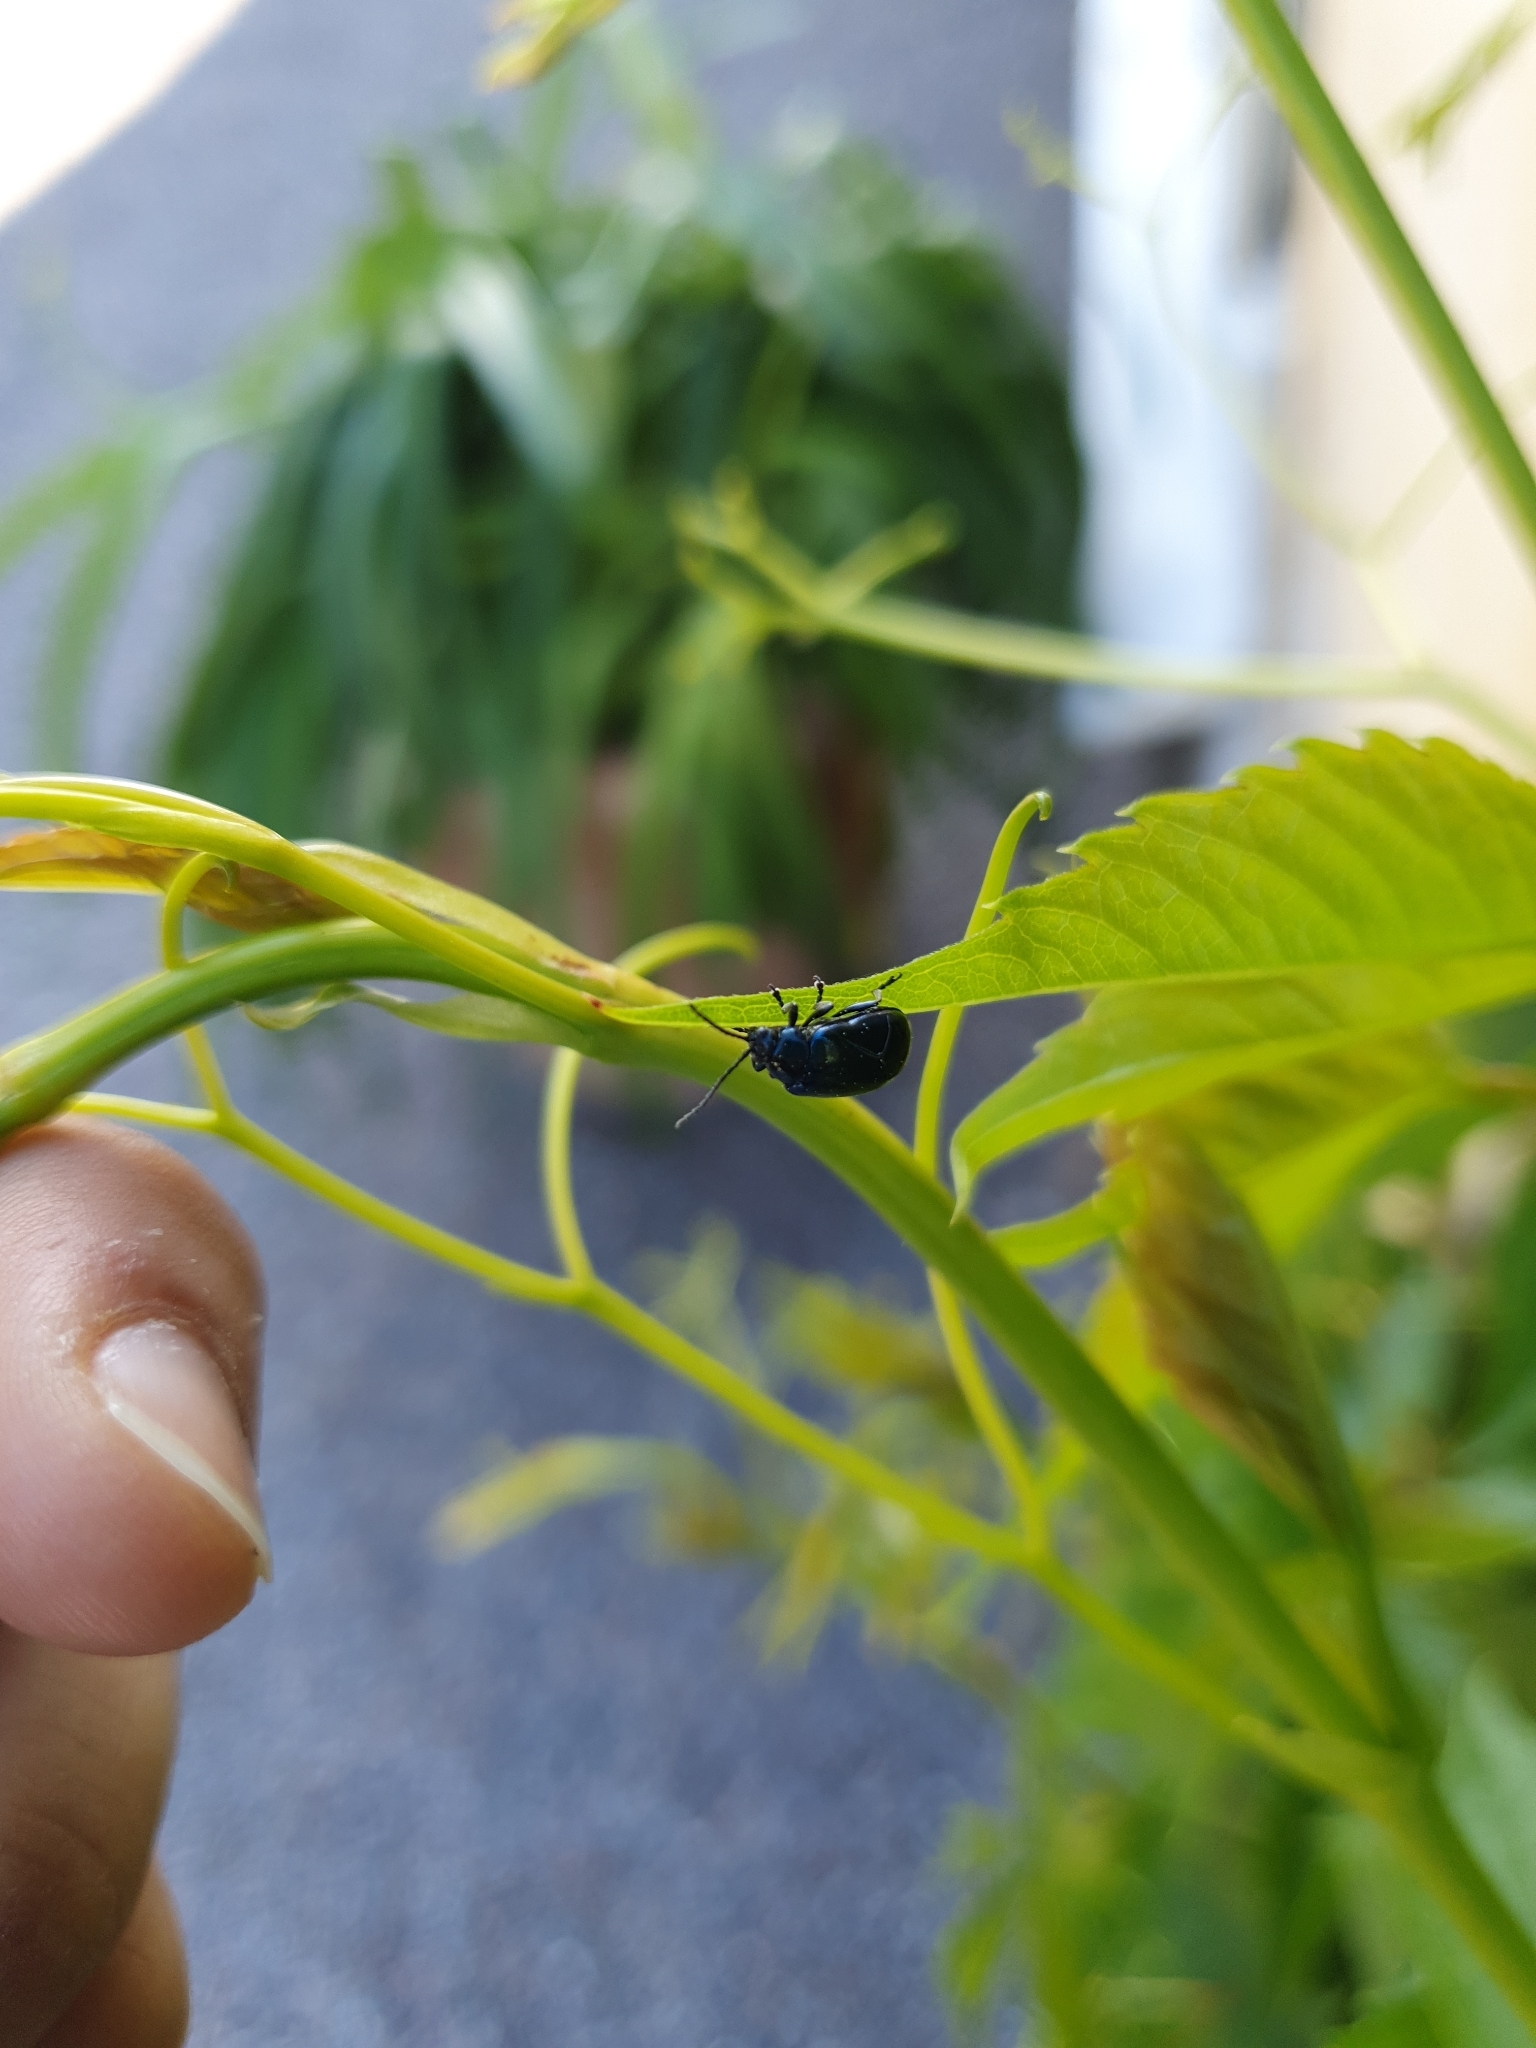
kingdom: Animalia
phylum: Arthropoda
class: Insecta
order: Coleoptera
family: Chrysomelidae
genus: Agelastica
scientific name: Agelastica alni
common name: Alder leaf beetle
